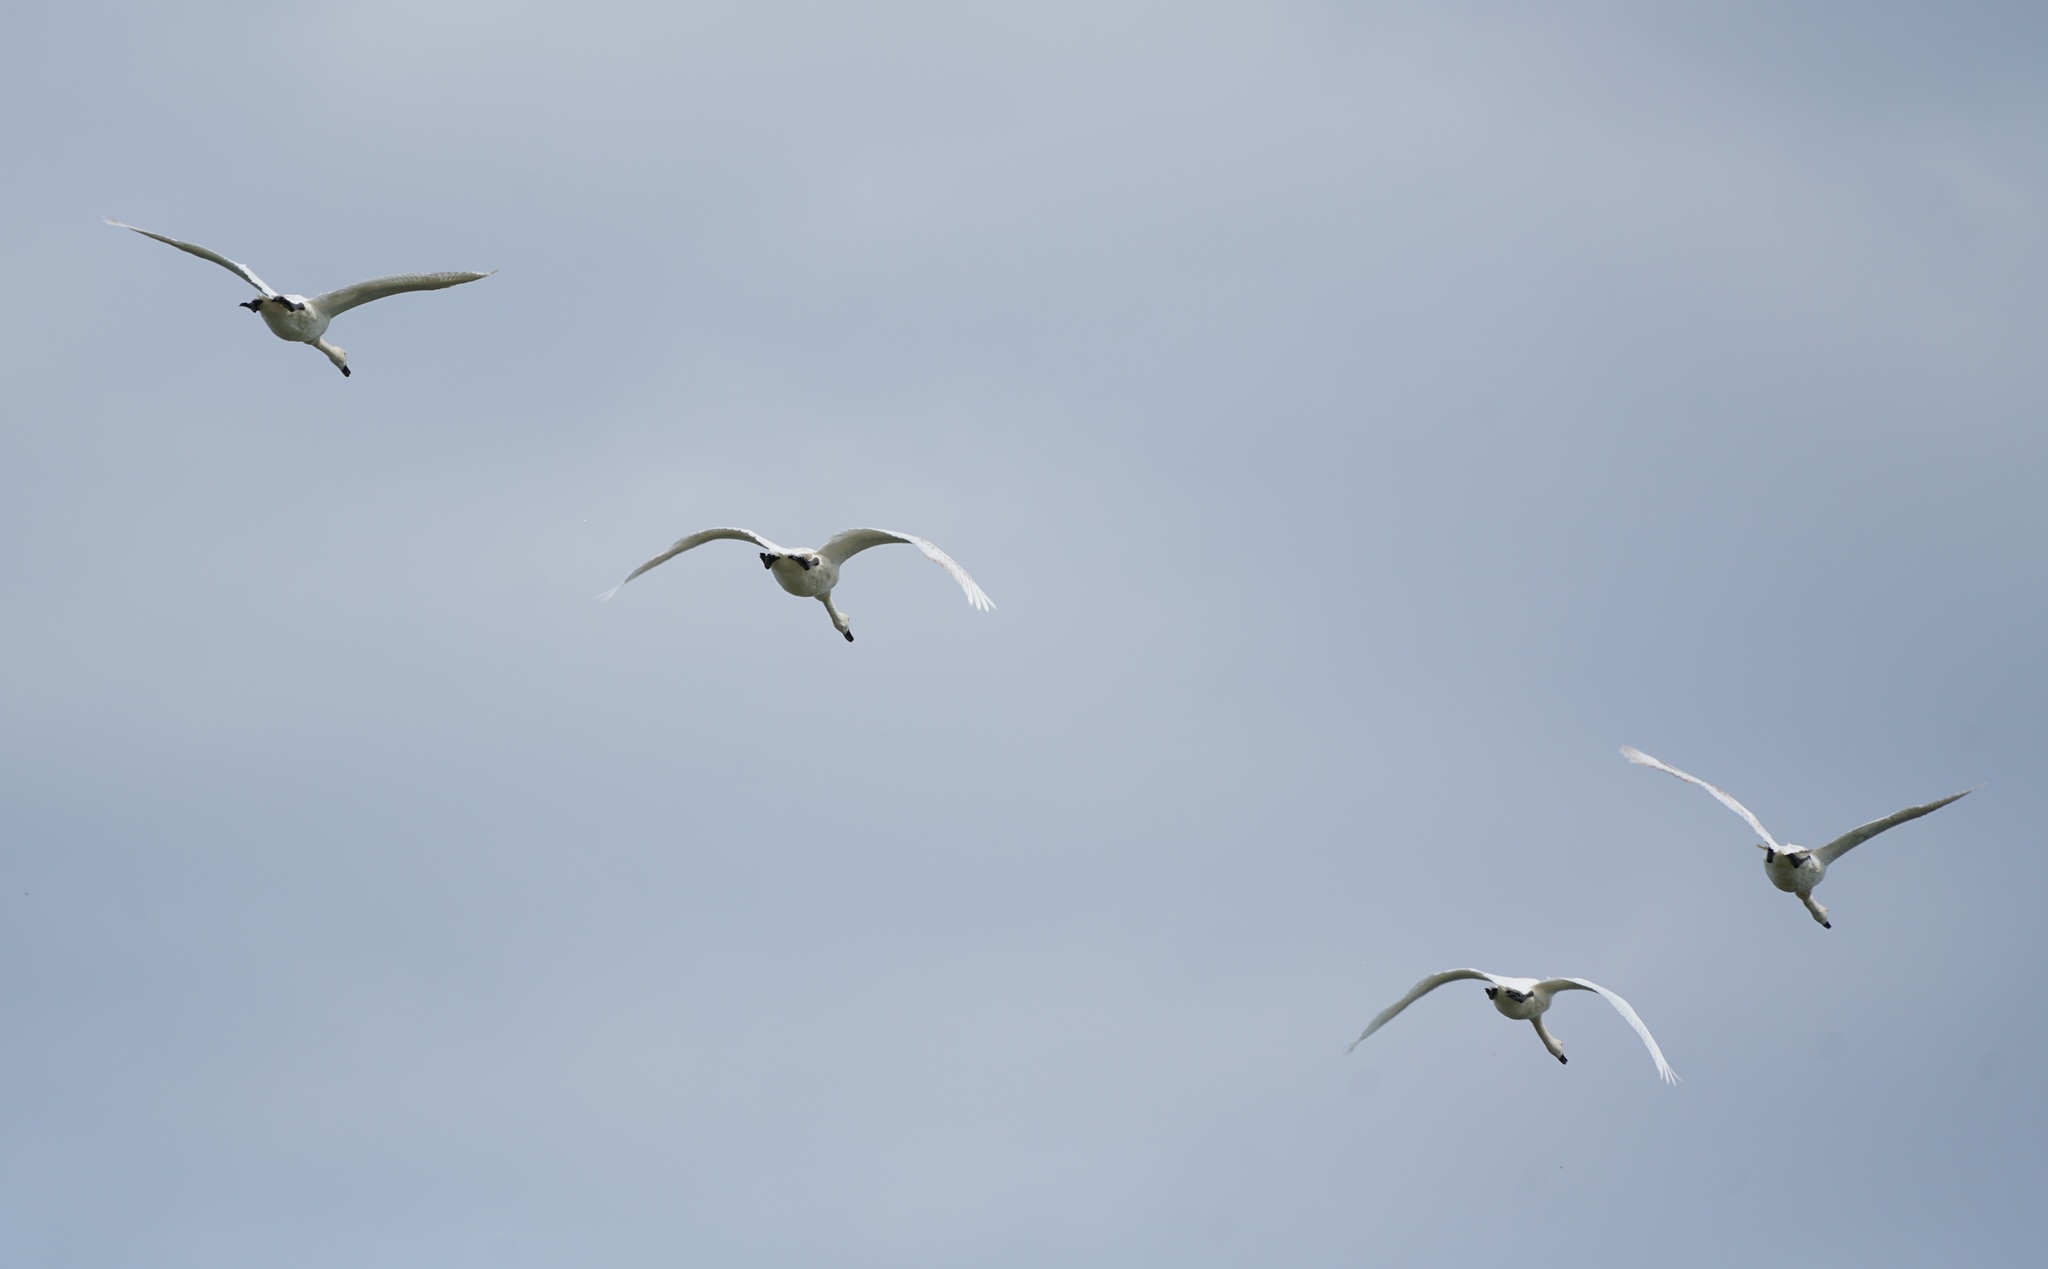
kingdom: Animalia
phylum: Chordata
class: Aves
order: Anseriformes
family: Anatidae
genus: Cygnus
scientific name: Cygnus olor
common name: Mute swan
